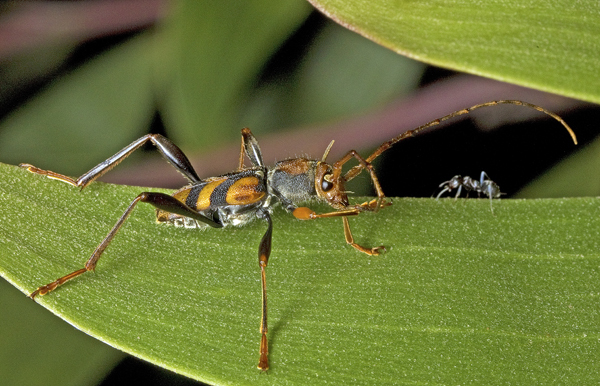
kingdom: Animalia
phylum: Arthropoda
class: Insecta
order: Coleoptera
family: Cerambycidae
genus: Aridaeus
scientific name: Aridaeus thoracicus
